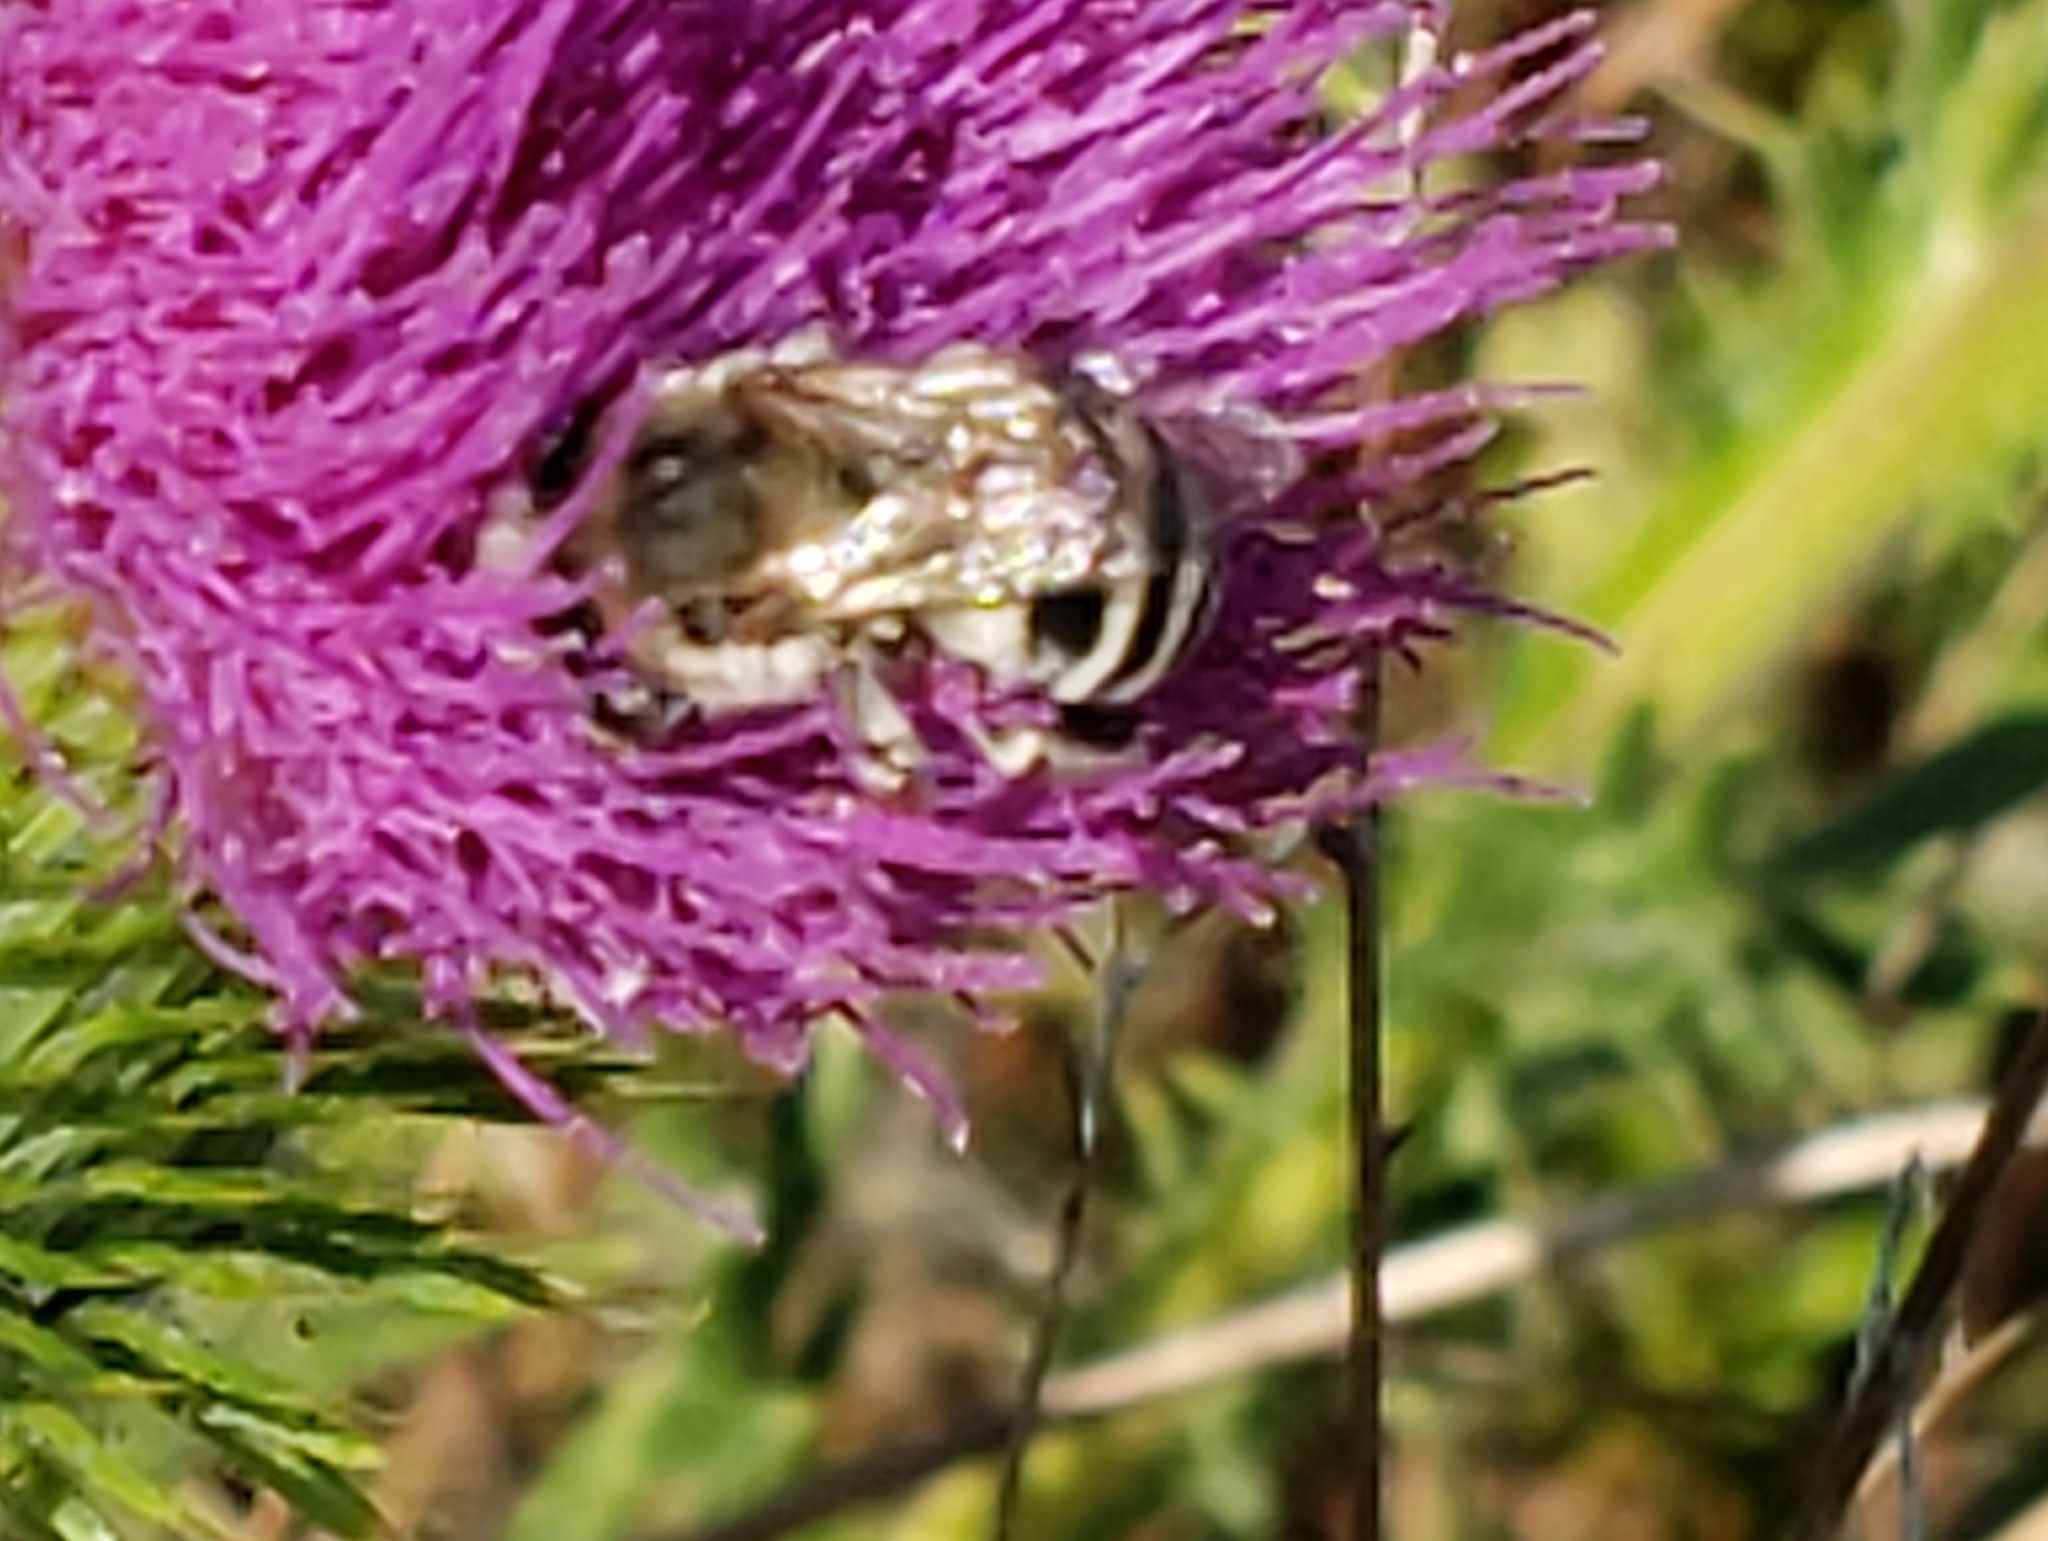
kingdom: Animalia
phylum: Arthropoda
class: Insecta
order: Hymenoptera
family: Apidae
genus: Anthophora
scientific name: Anthophora urbana
